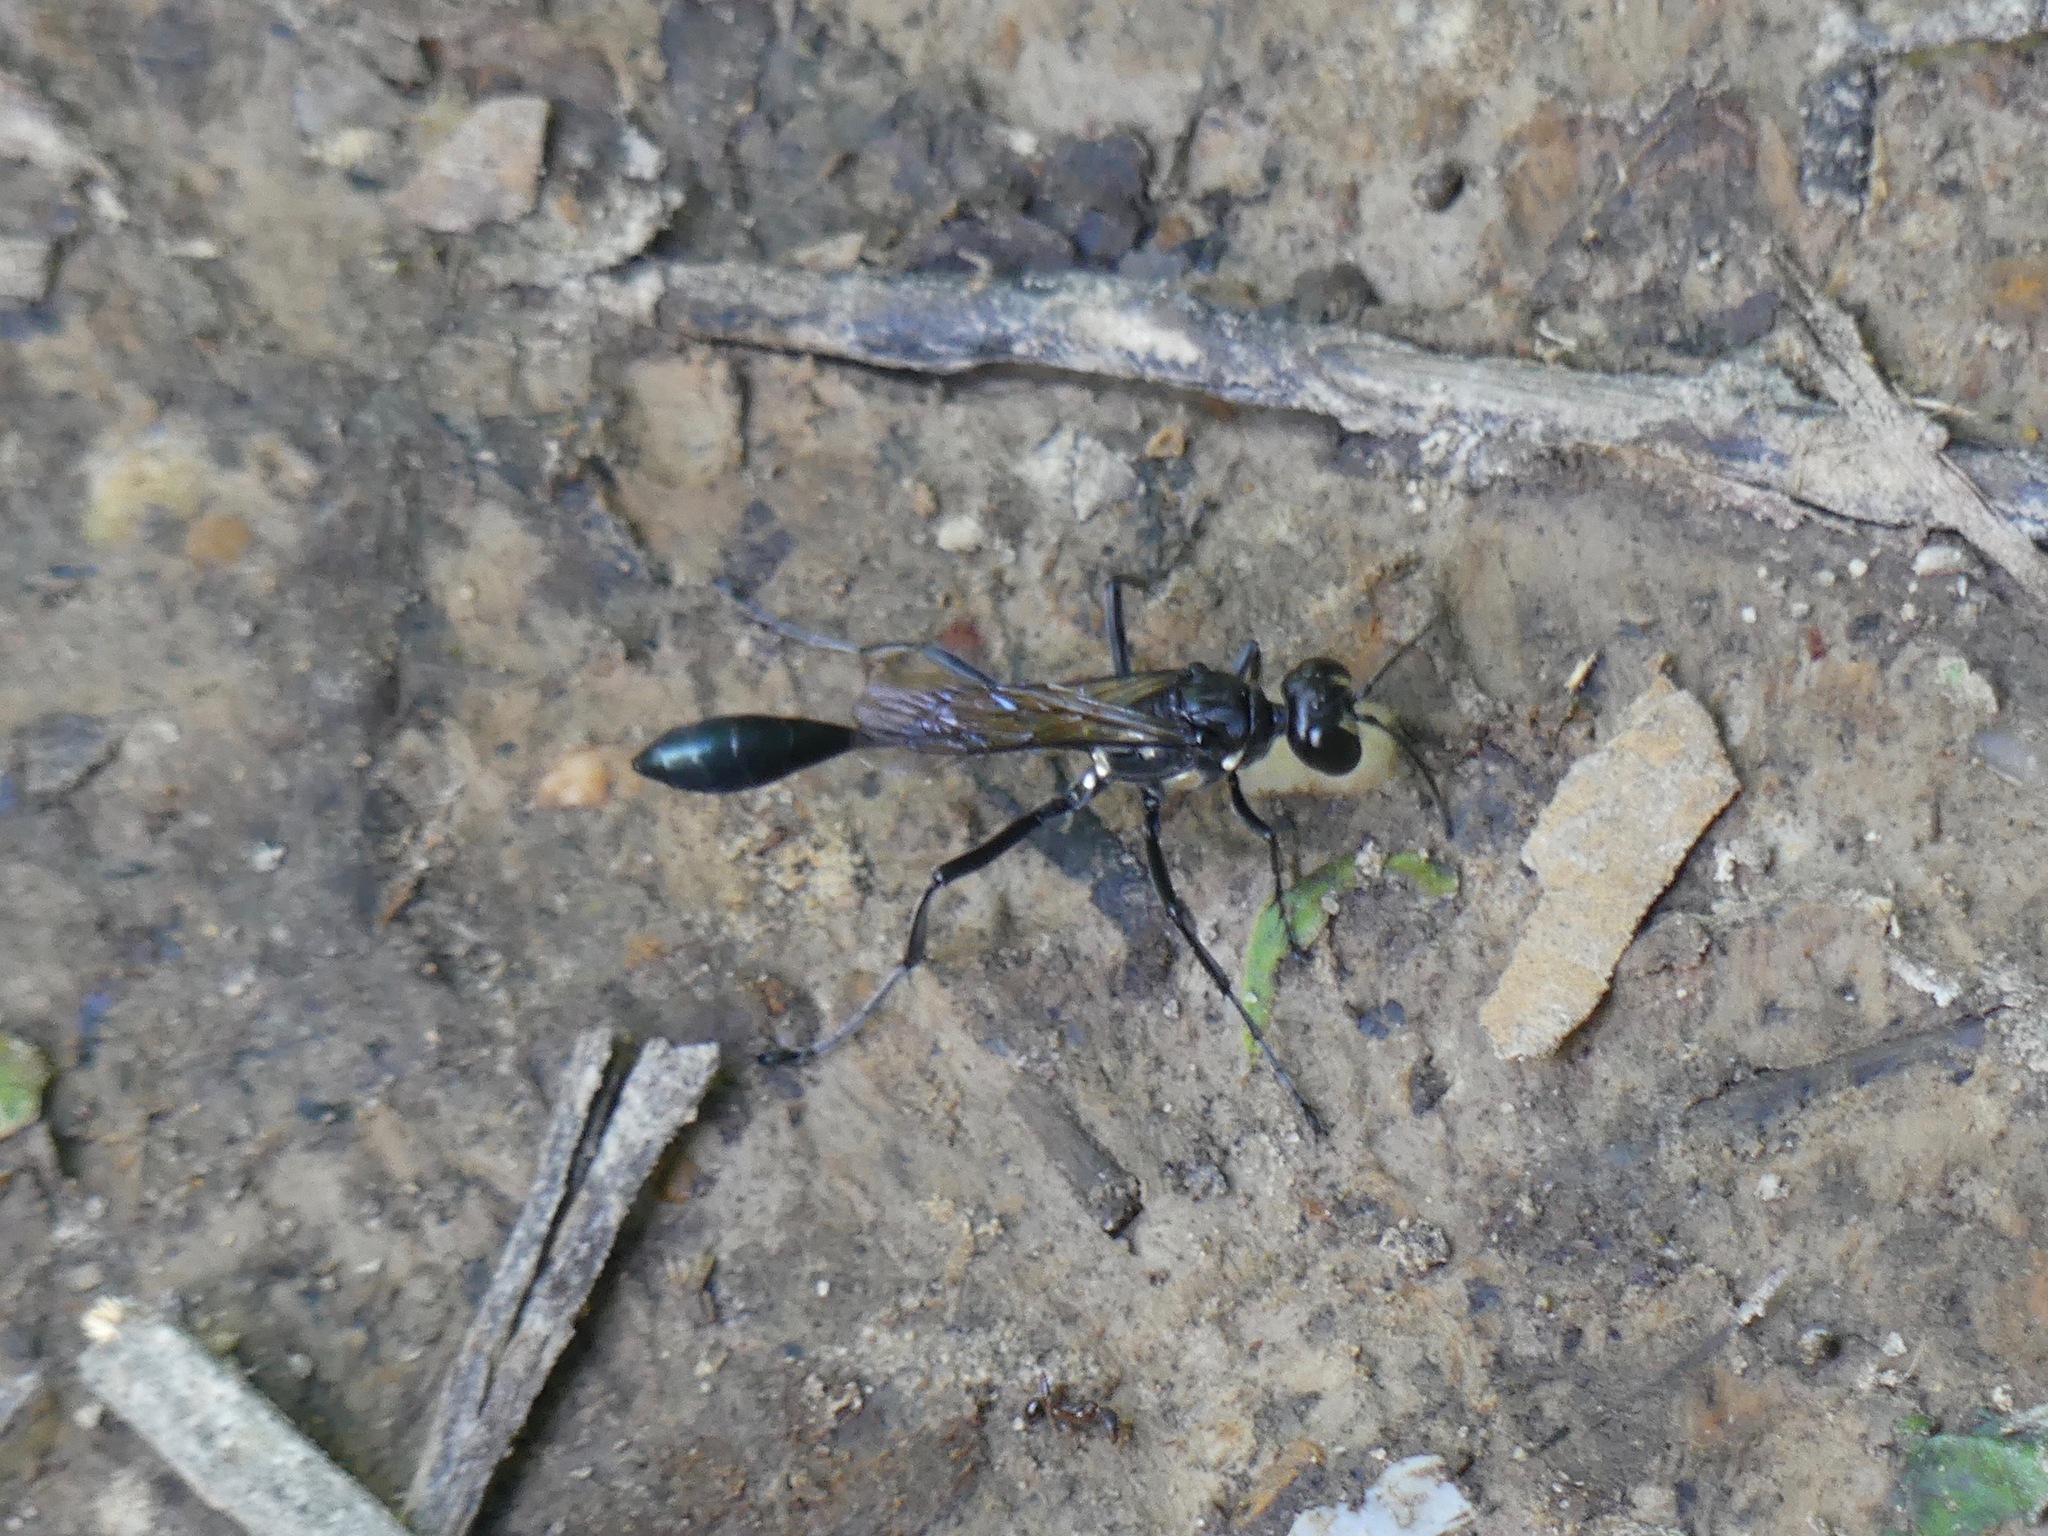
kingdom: Animalia
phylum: Arthropoda
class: Insecta
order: Hymenoptera
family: Sphecidae
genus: Eremnophila
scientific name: Eremnophila aureonotata
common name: Gold-marked thread-waisted wasp
